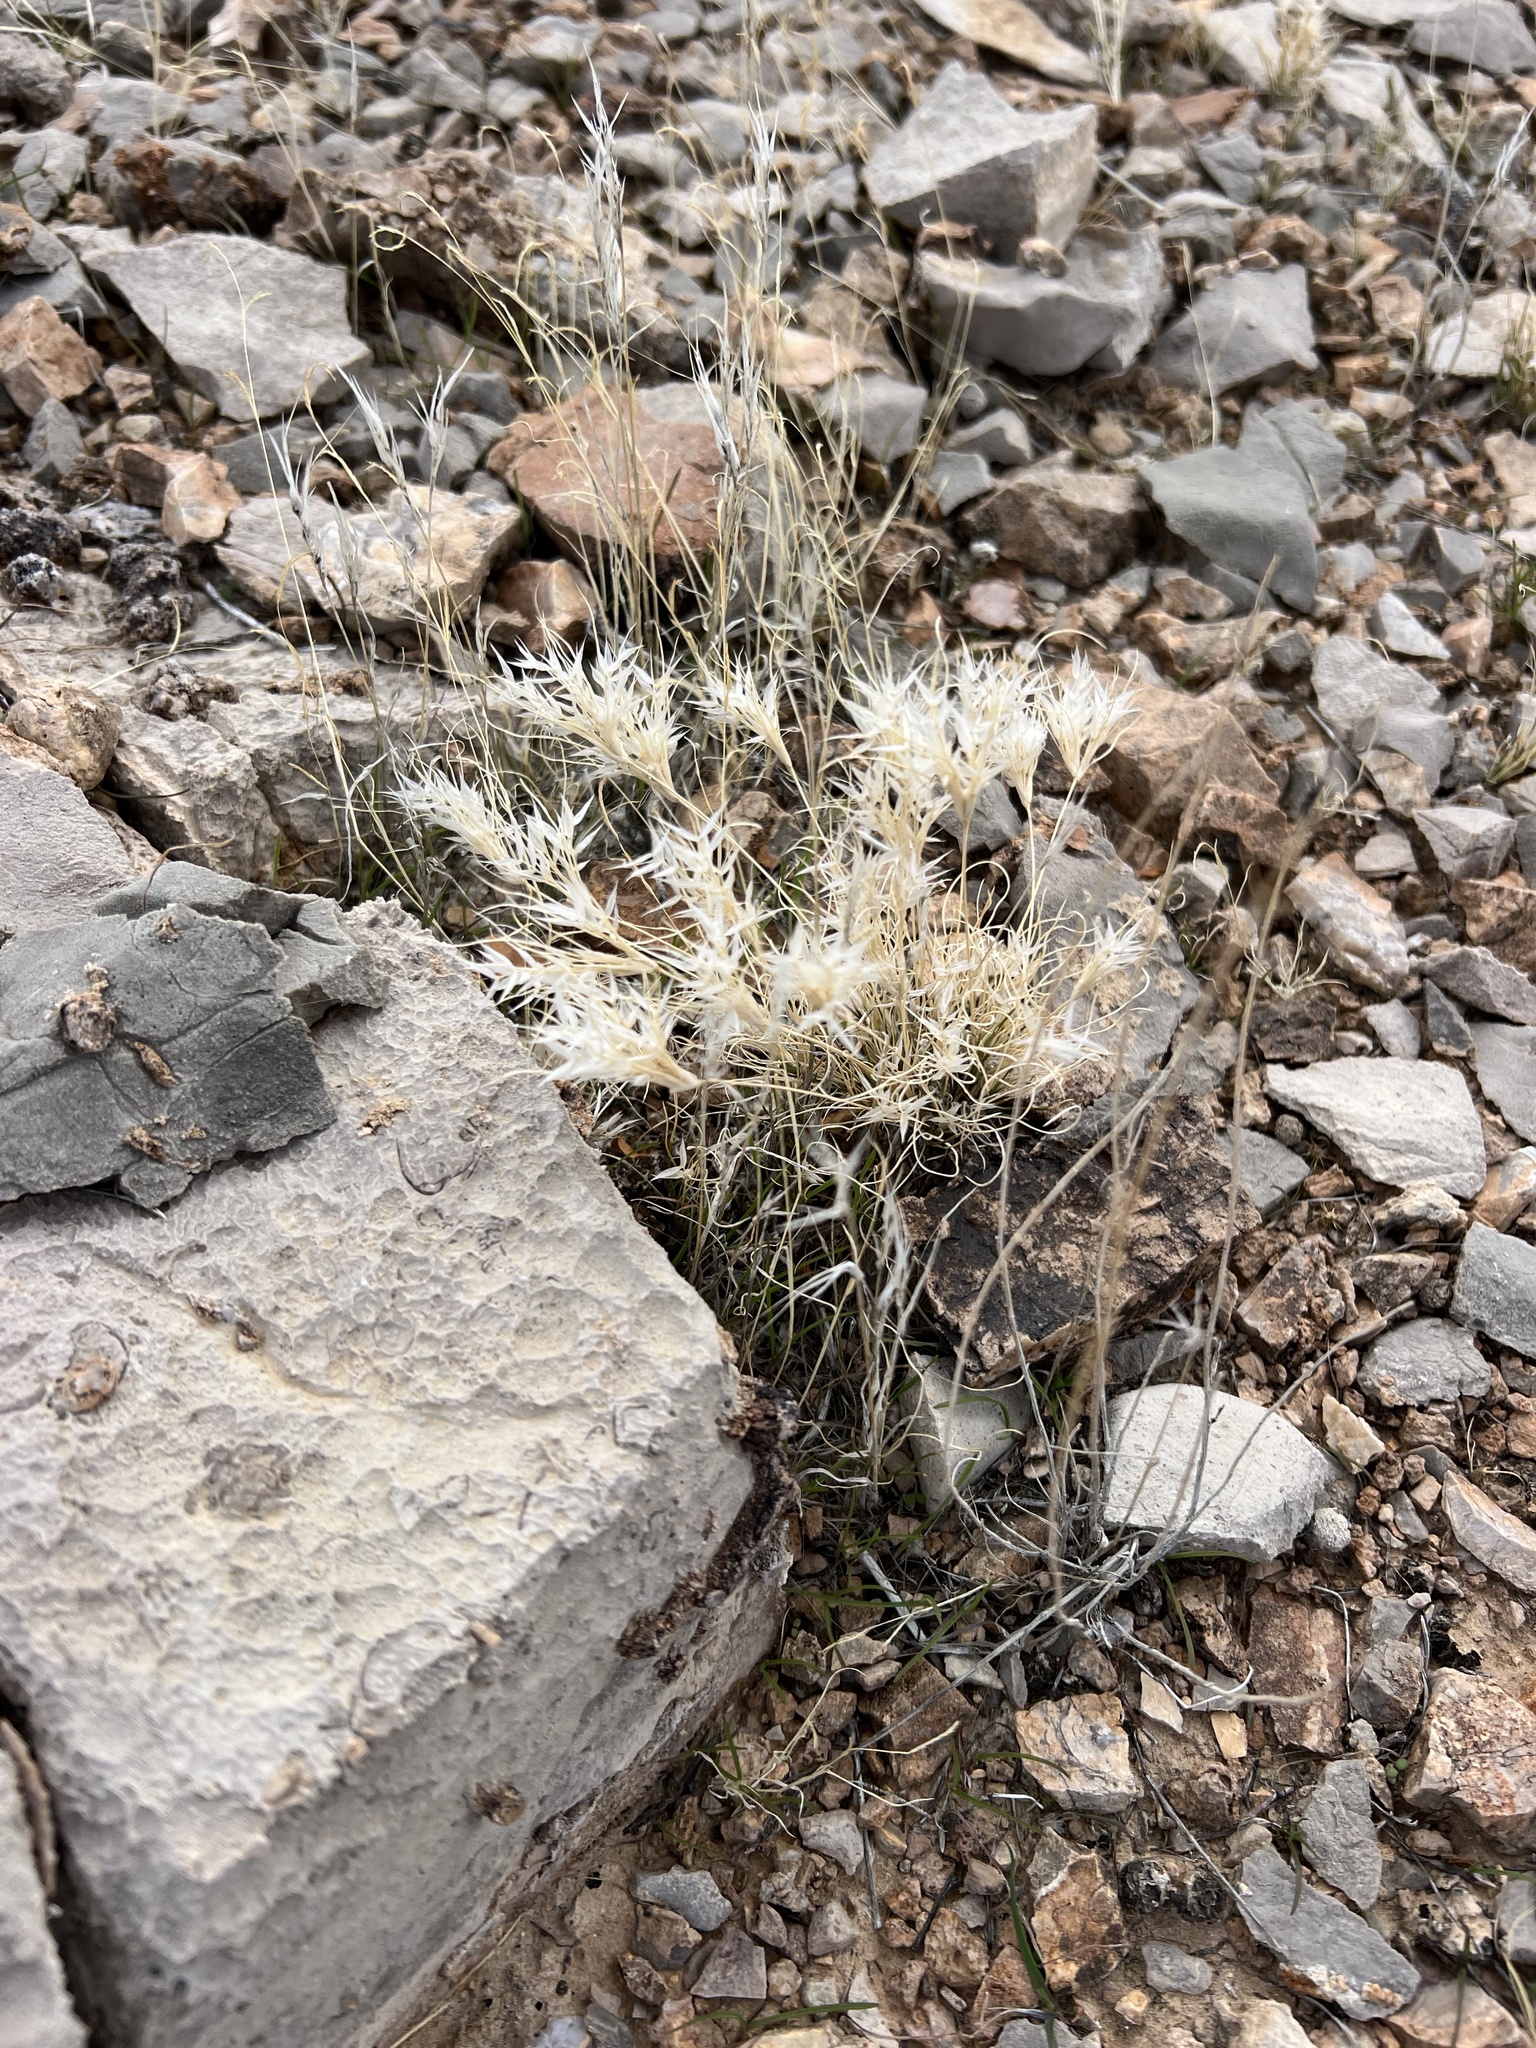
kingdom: Plantae
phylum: Tracheophyta
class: Liliopsida
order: Poales
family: Poaceae
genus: Dasyochloa
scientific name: Dasyochloa pulchella
